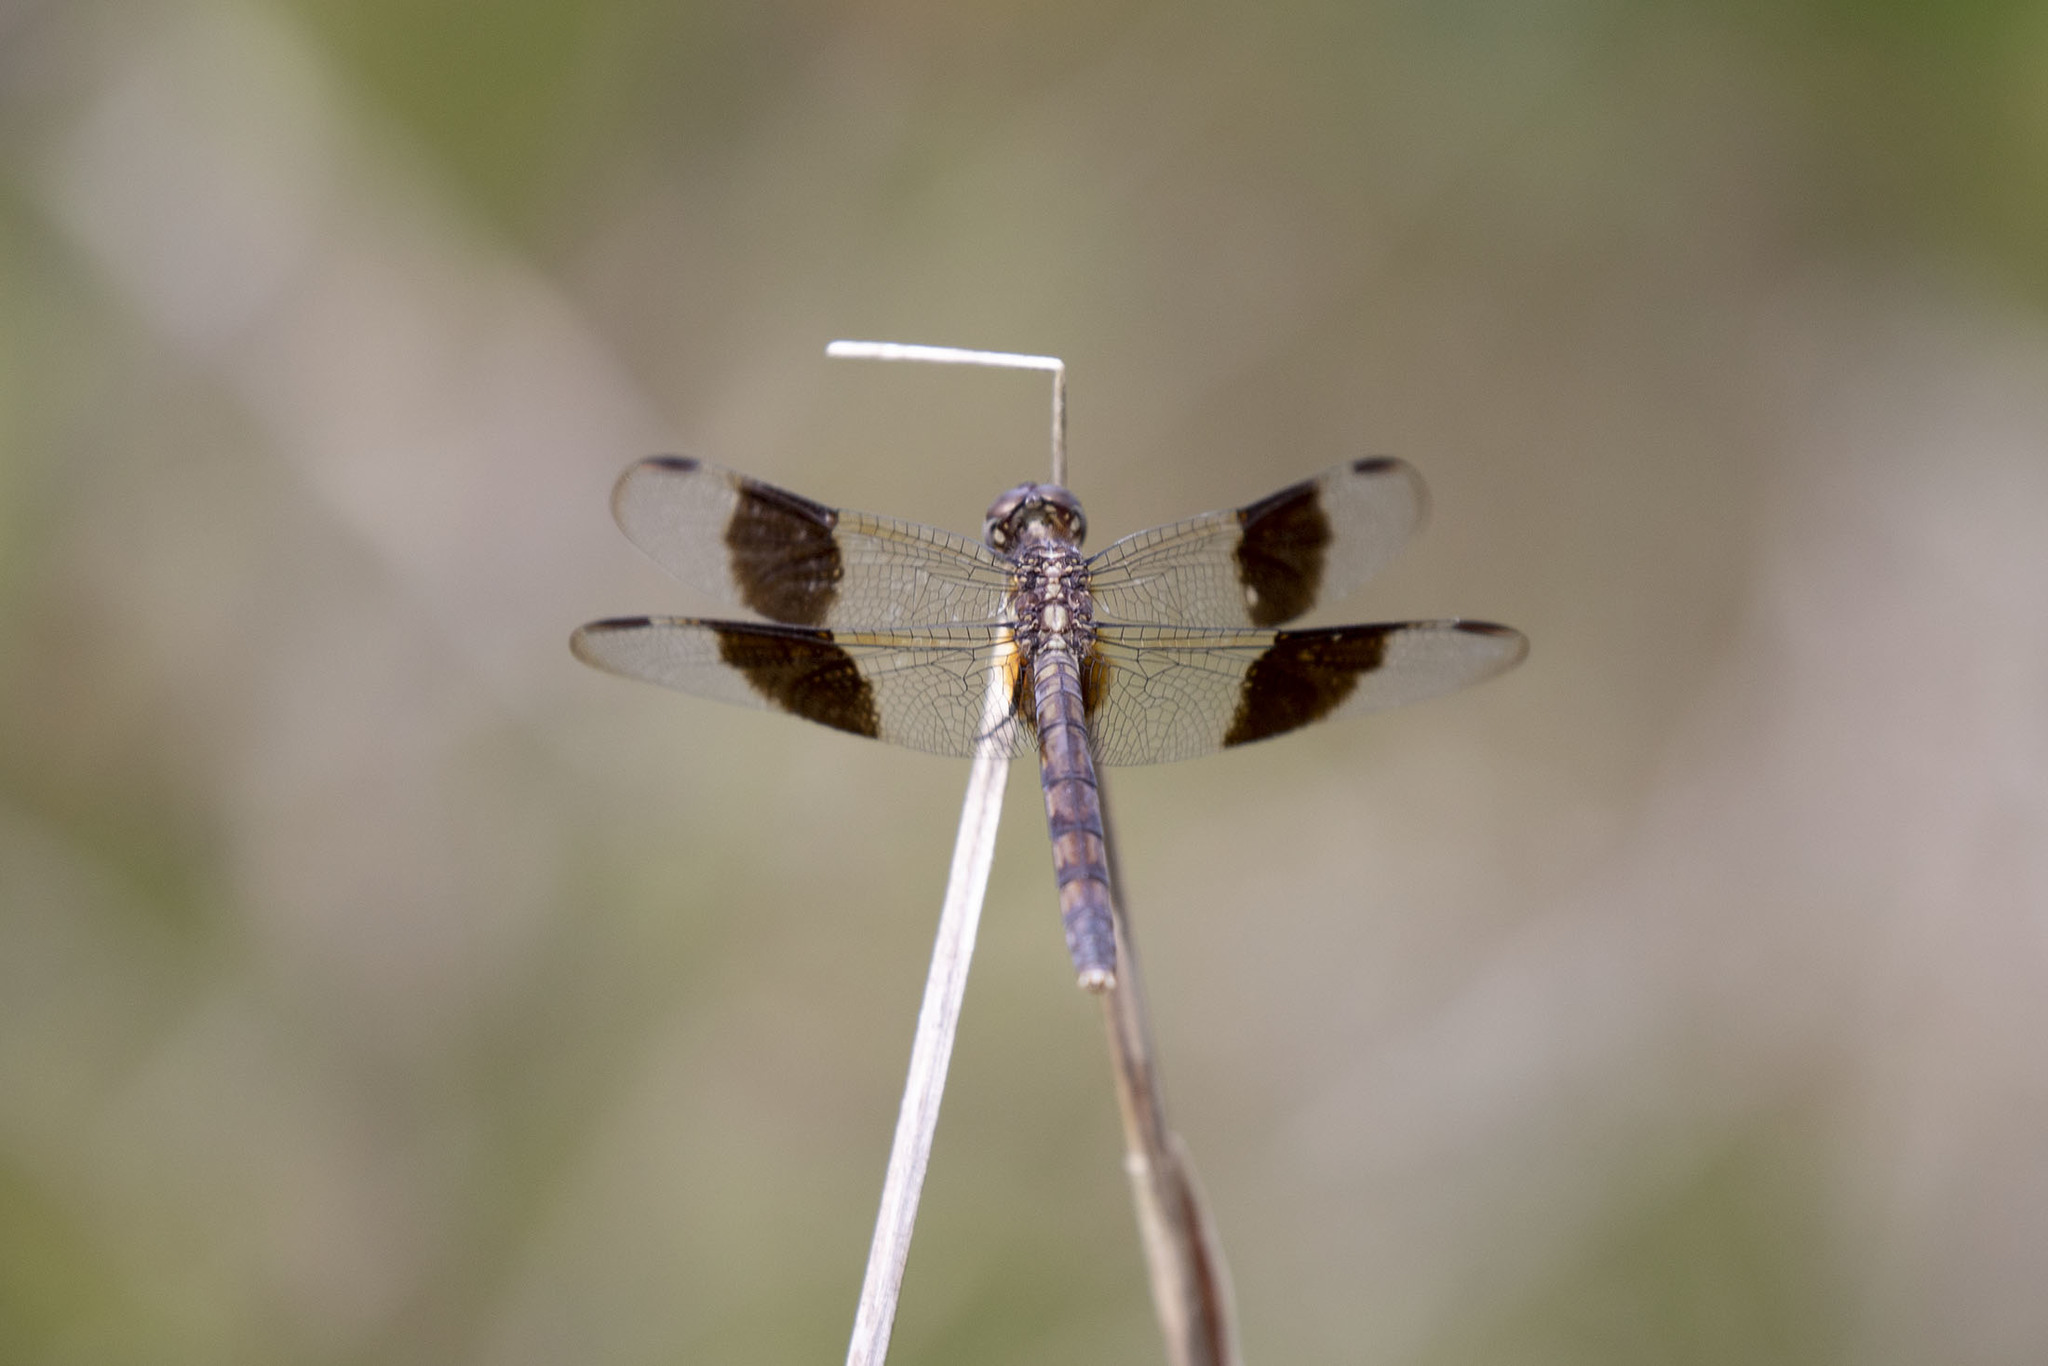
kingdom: Animalia
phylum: Arthropoda
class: Insecta
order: Odonata
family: Libellulidae
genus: Erythrodiplax
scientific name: Erythrodiplax umbrata
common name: Band-winged dragonlet
